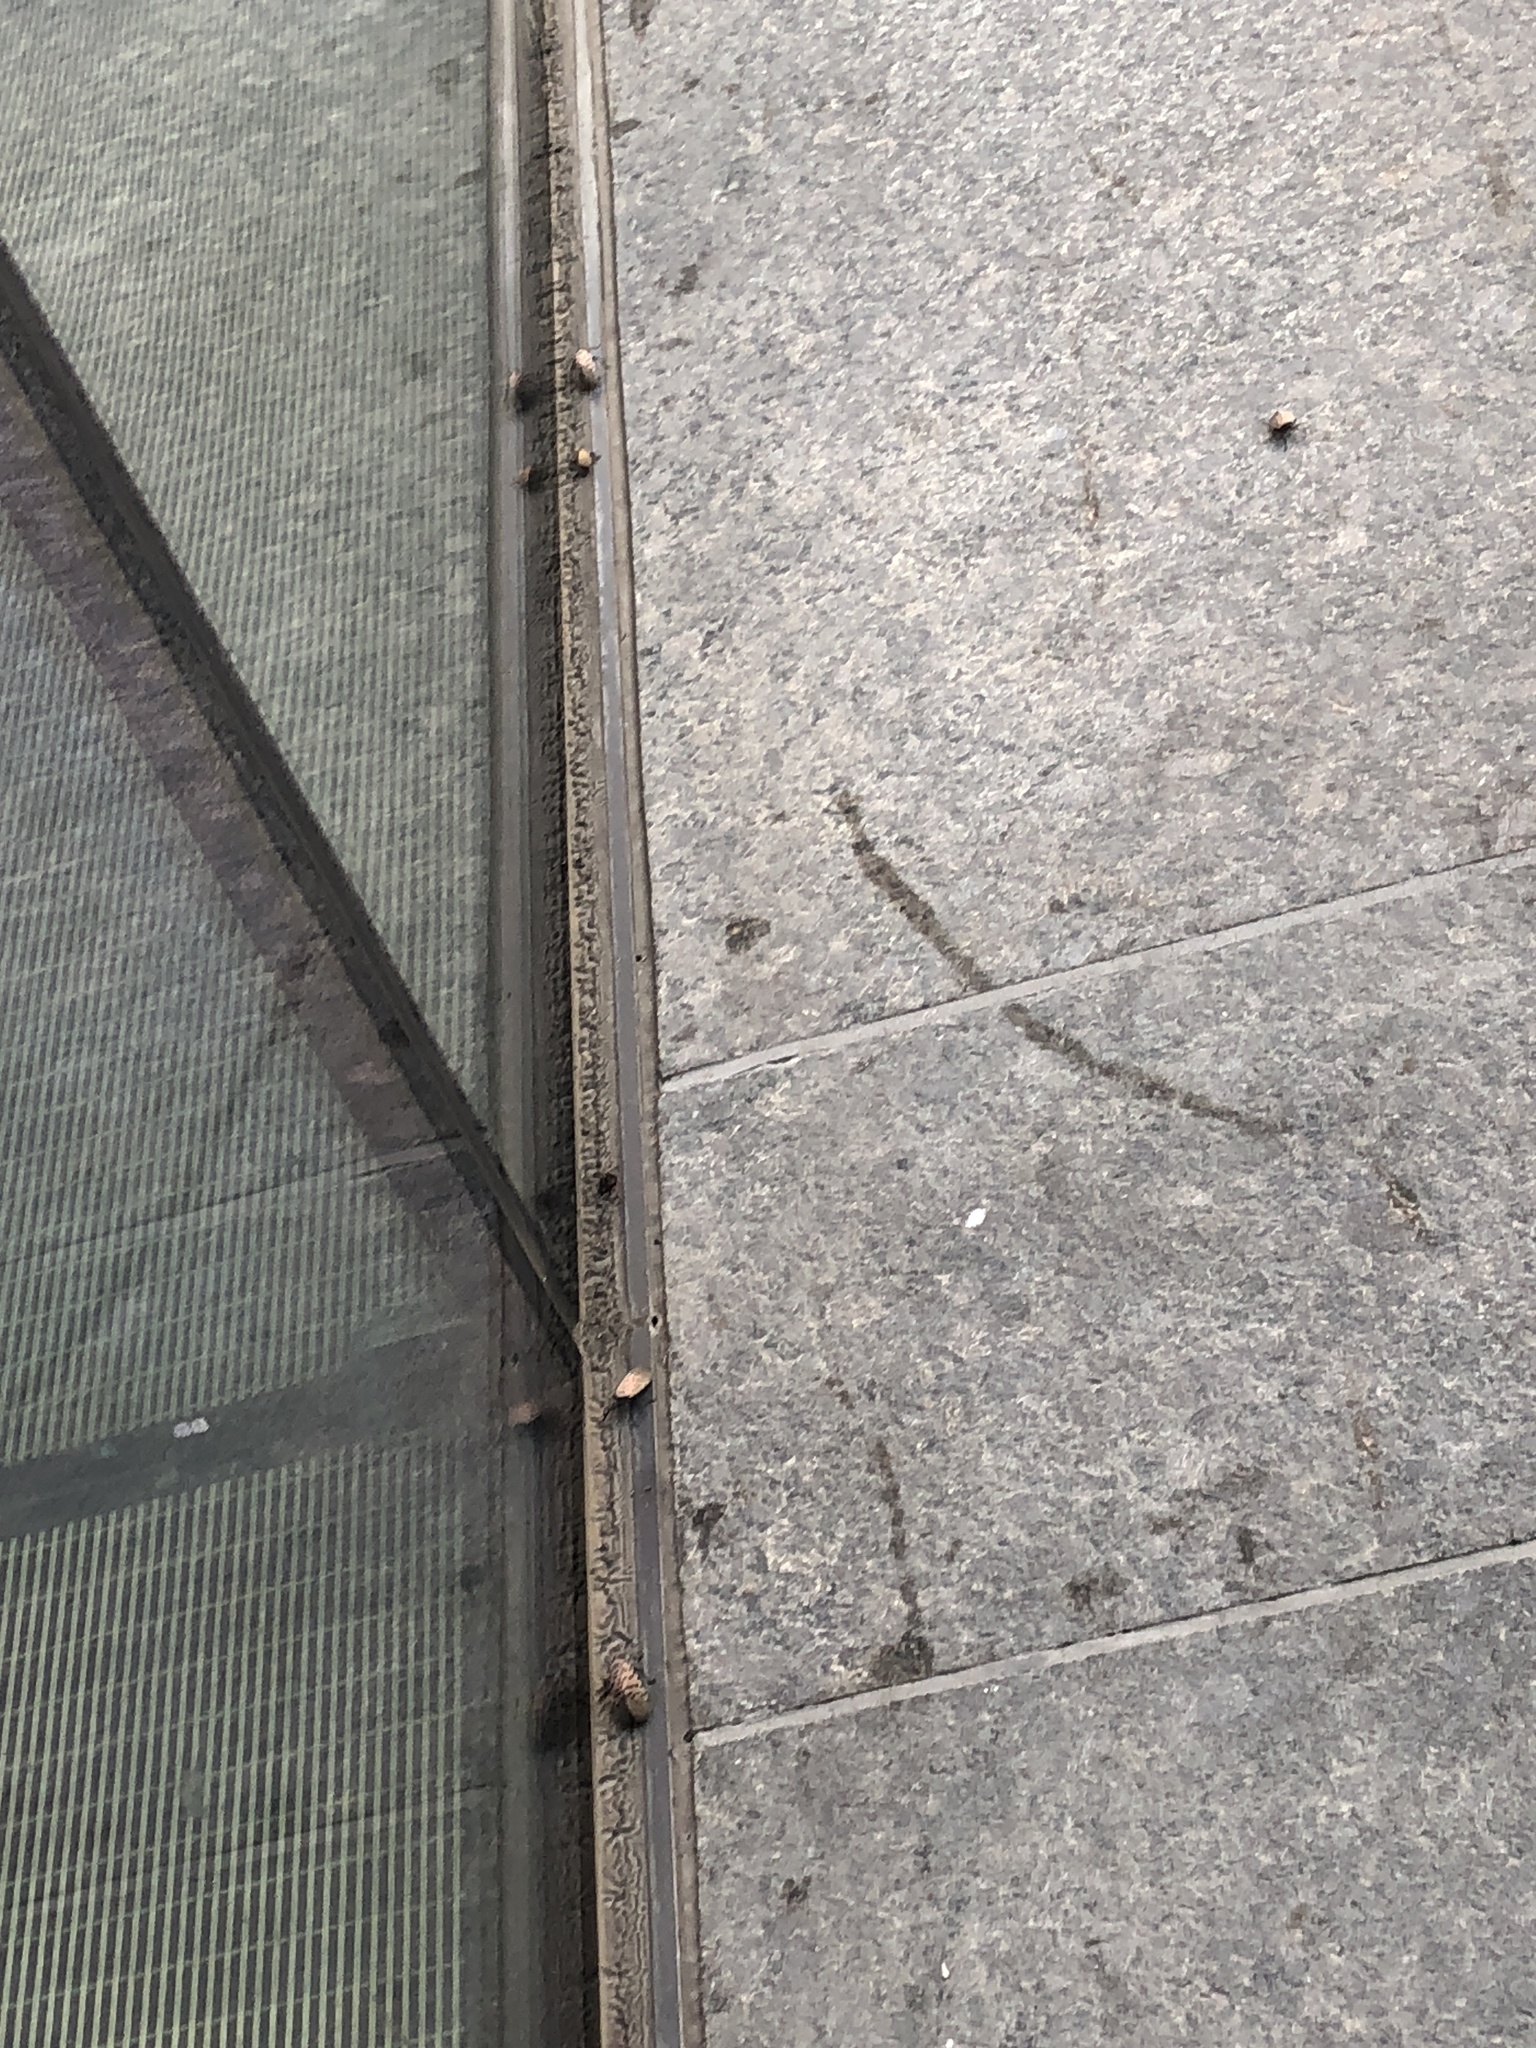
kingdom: Animalia
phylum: Arthropoda
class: Insecta
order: Hemiptera
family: Fulgoridae
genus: Lycorma
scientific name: Lycorma delicatula
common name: Spotted lanternfly
